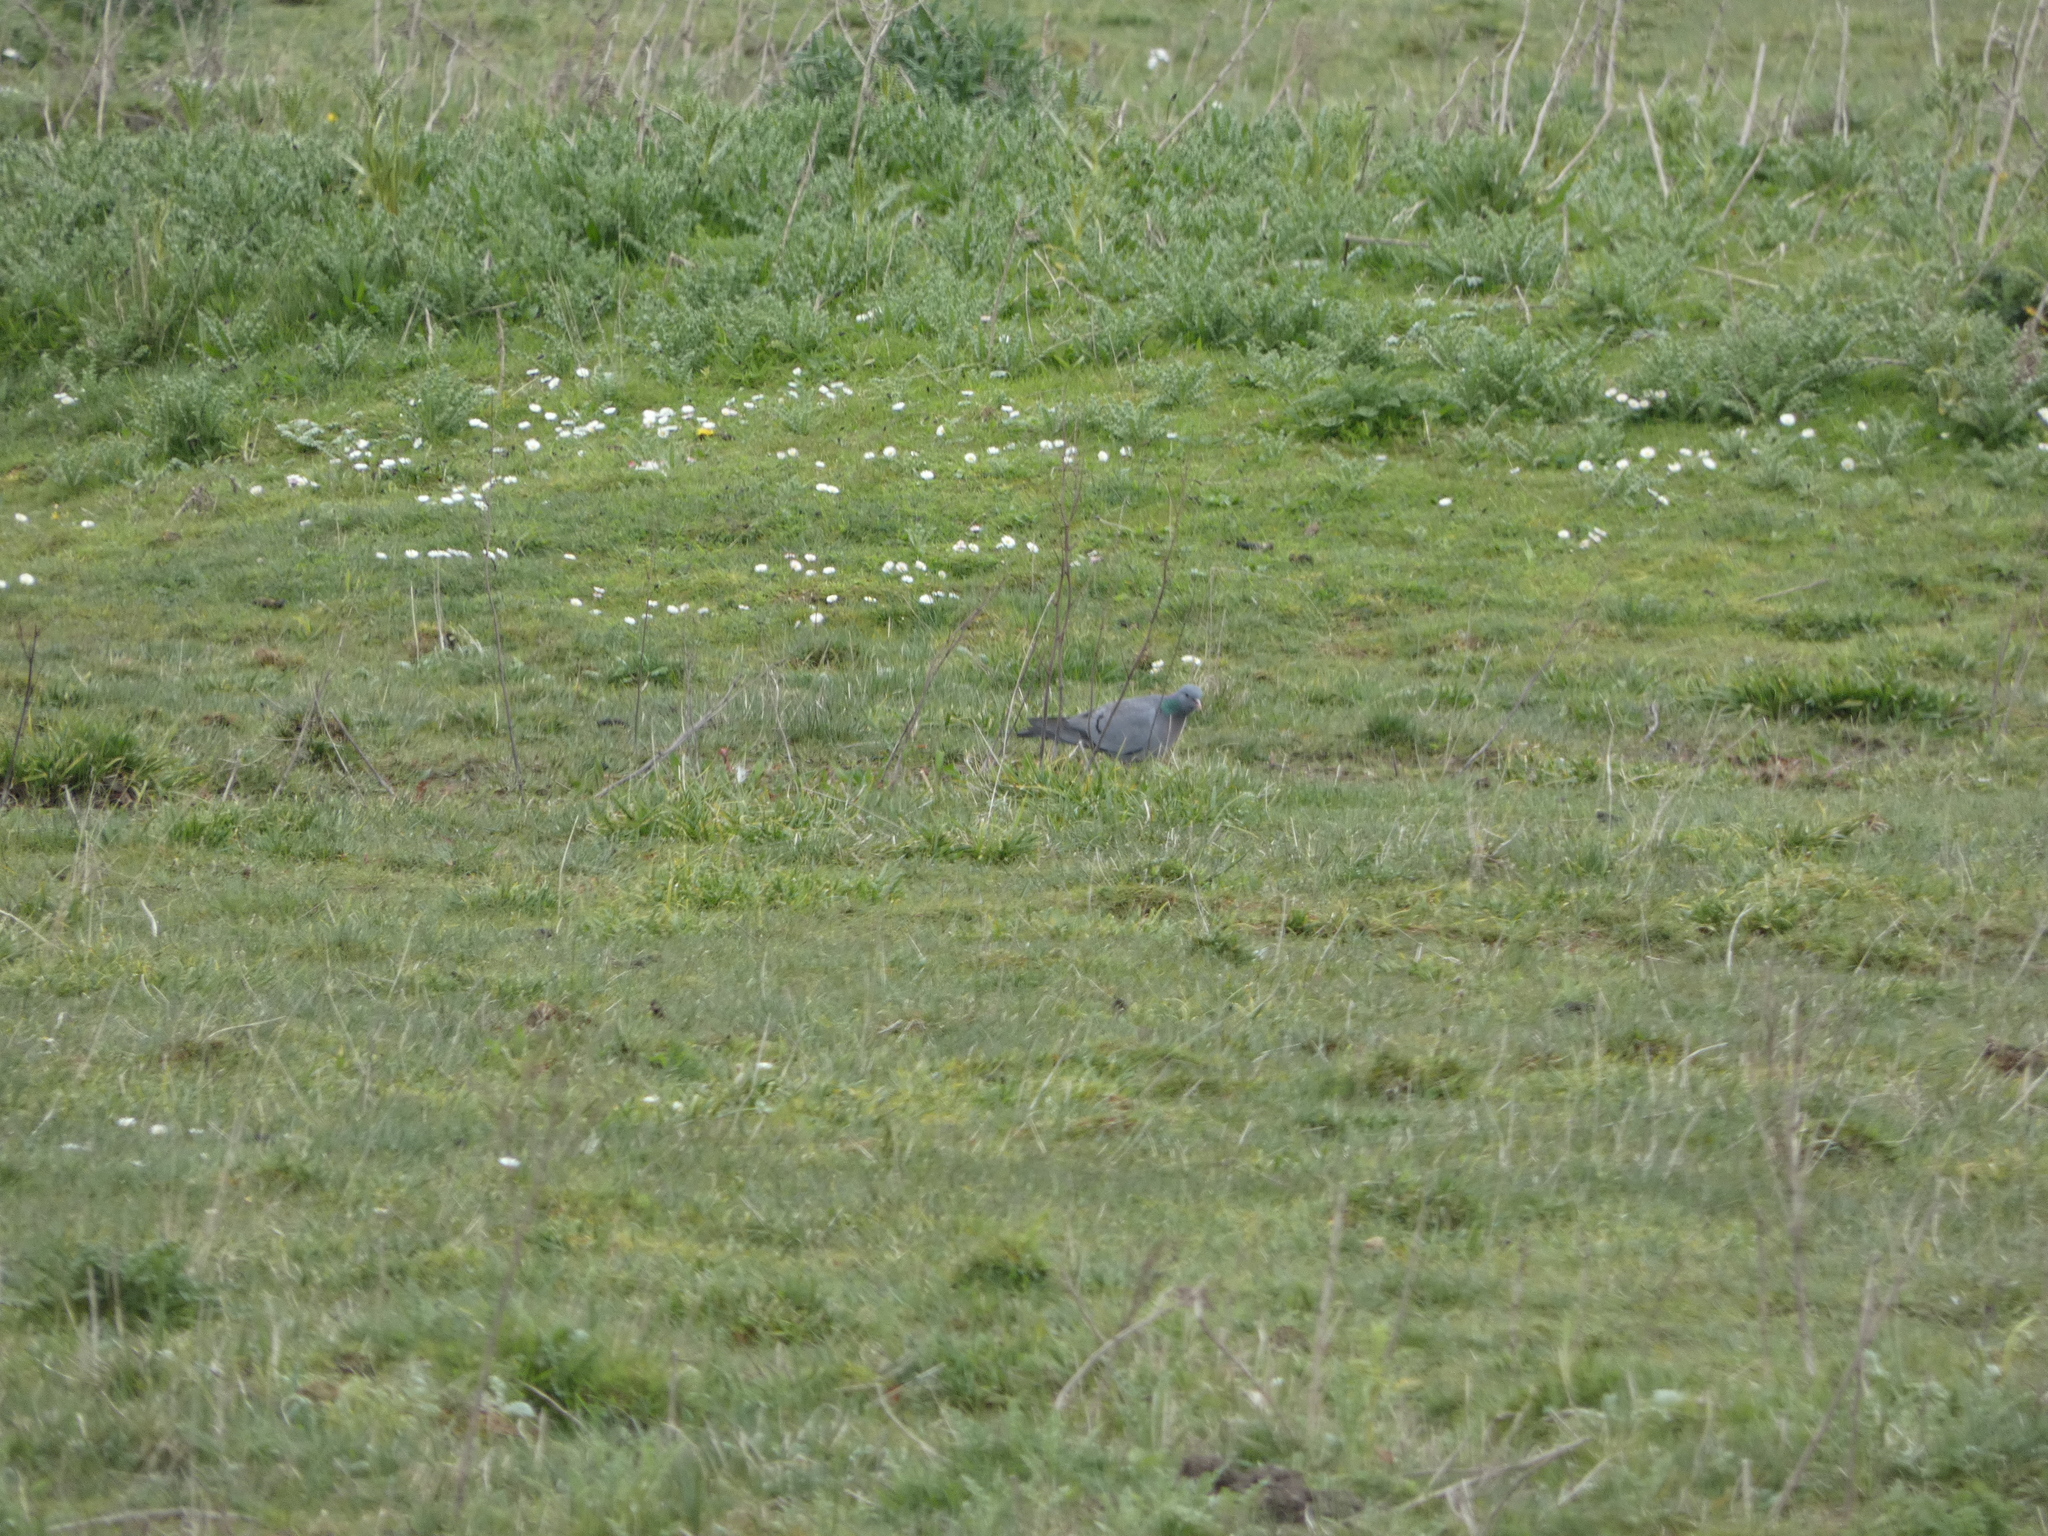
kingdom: Animalia
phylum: Chordata
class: Aves
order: Columbiformes
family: Columbidae
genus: Columba
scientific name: Columba oenas
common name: Stock dove
